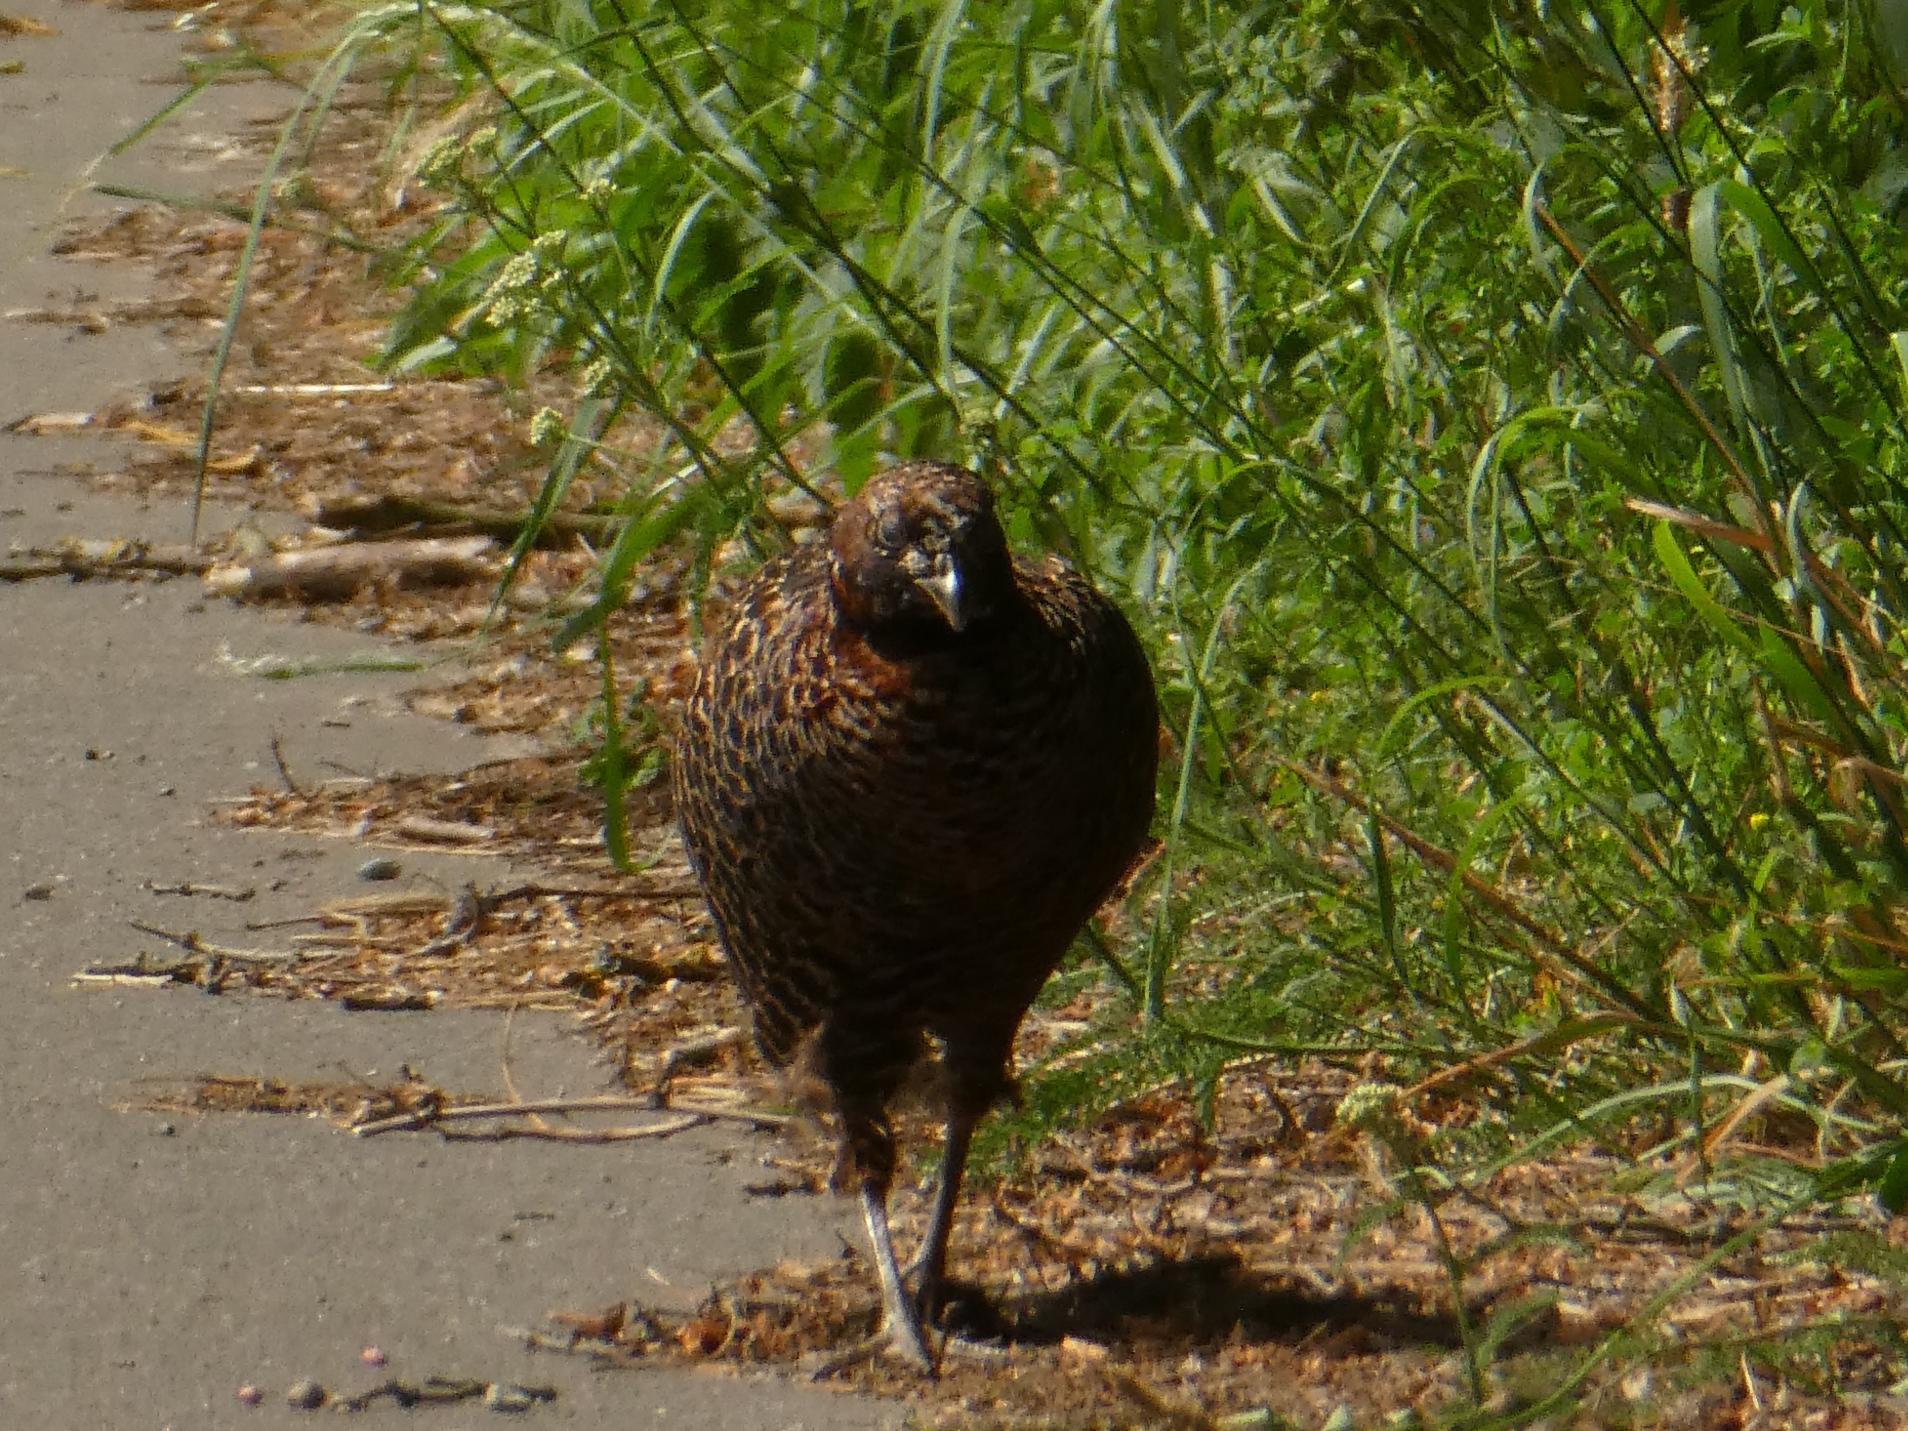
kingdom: Animalia
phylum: Chordata
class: Aves
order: Galliformes
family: Phasianidae
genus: Phasianus
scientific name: Phasianus colchicus
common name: Common pheasant
